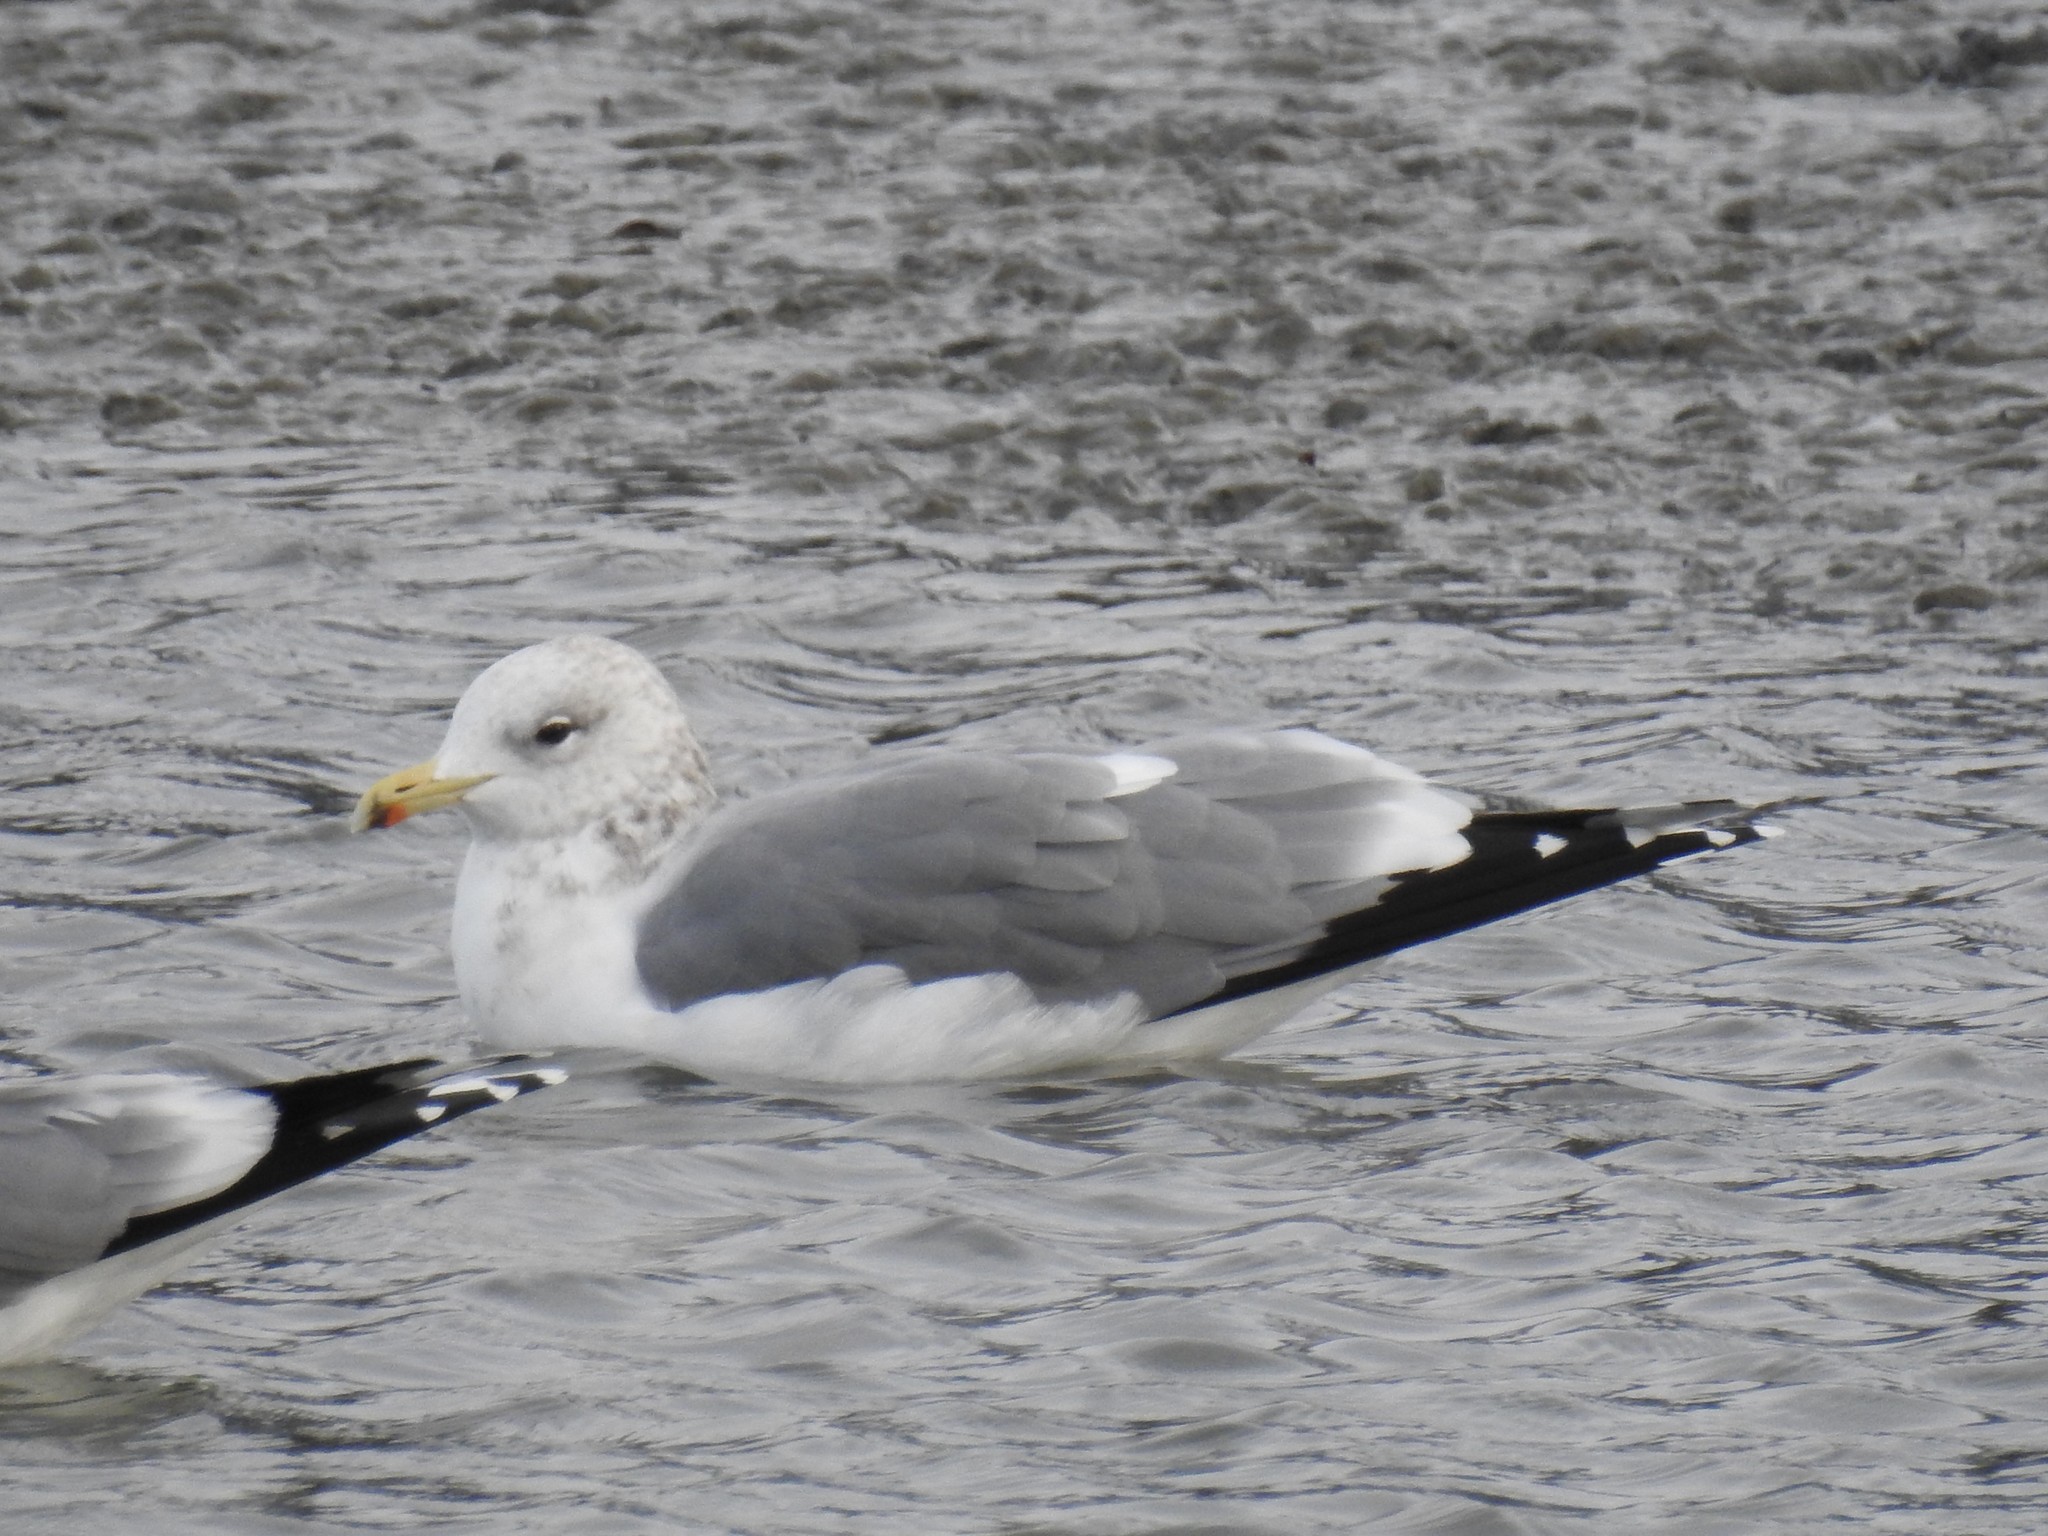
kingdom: Animalia
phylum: Chordata
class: Aves
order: Charadriiformes
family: Laridae
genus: Larus
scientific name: Larus californicus
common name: California gull
